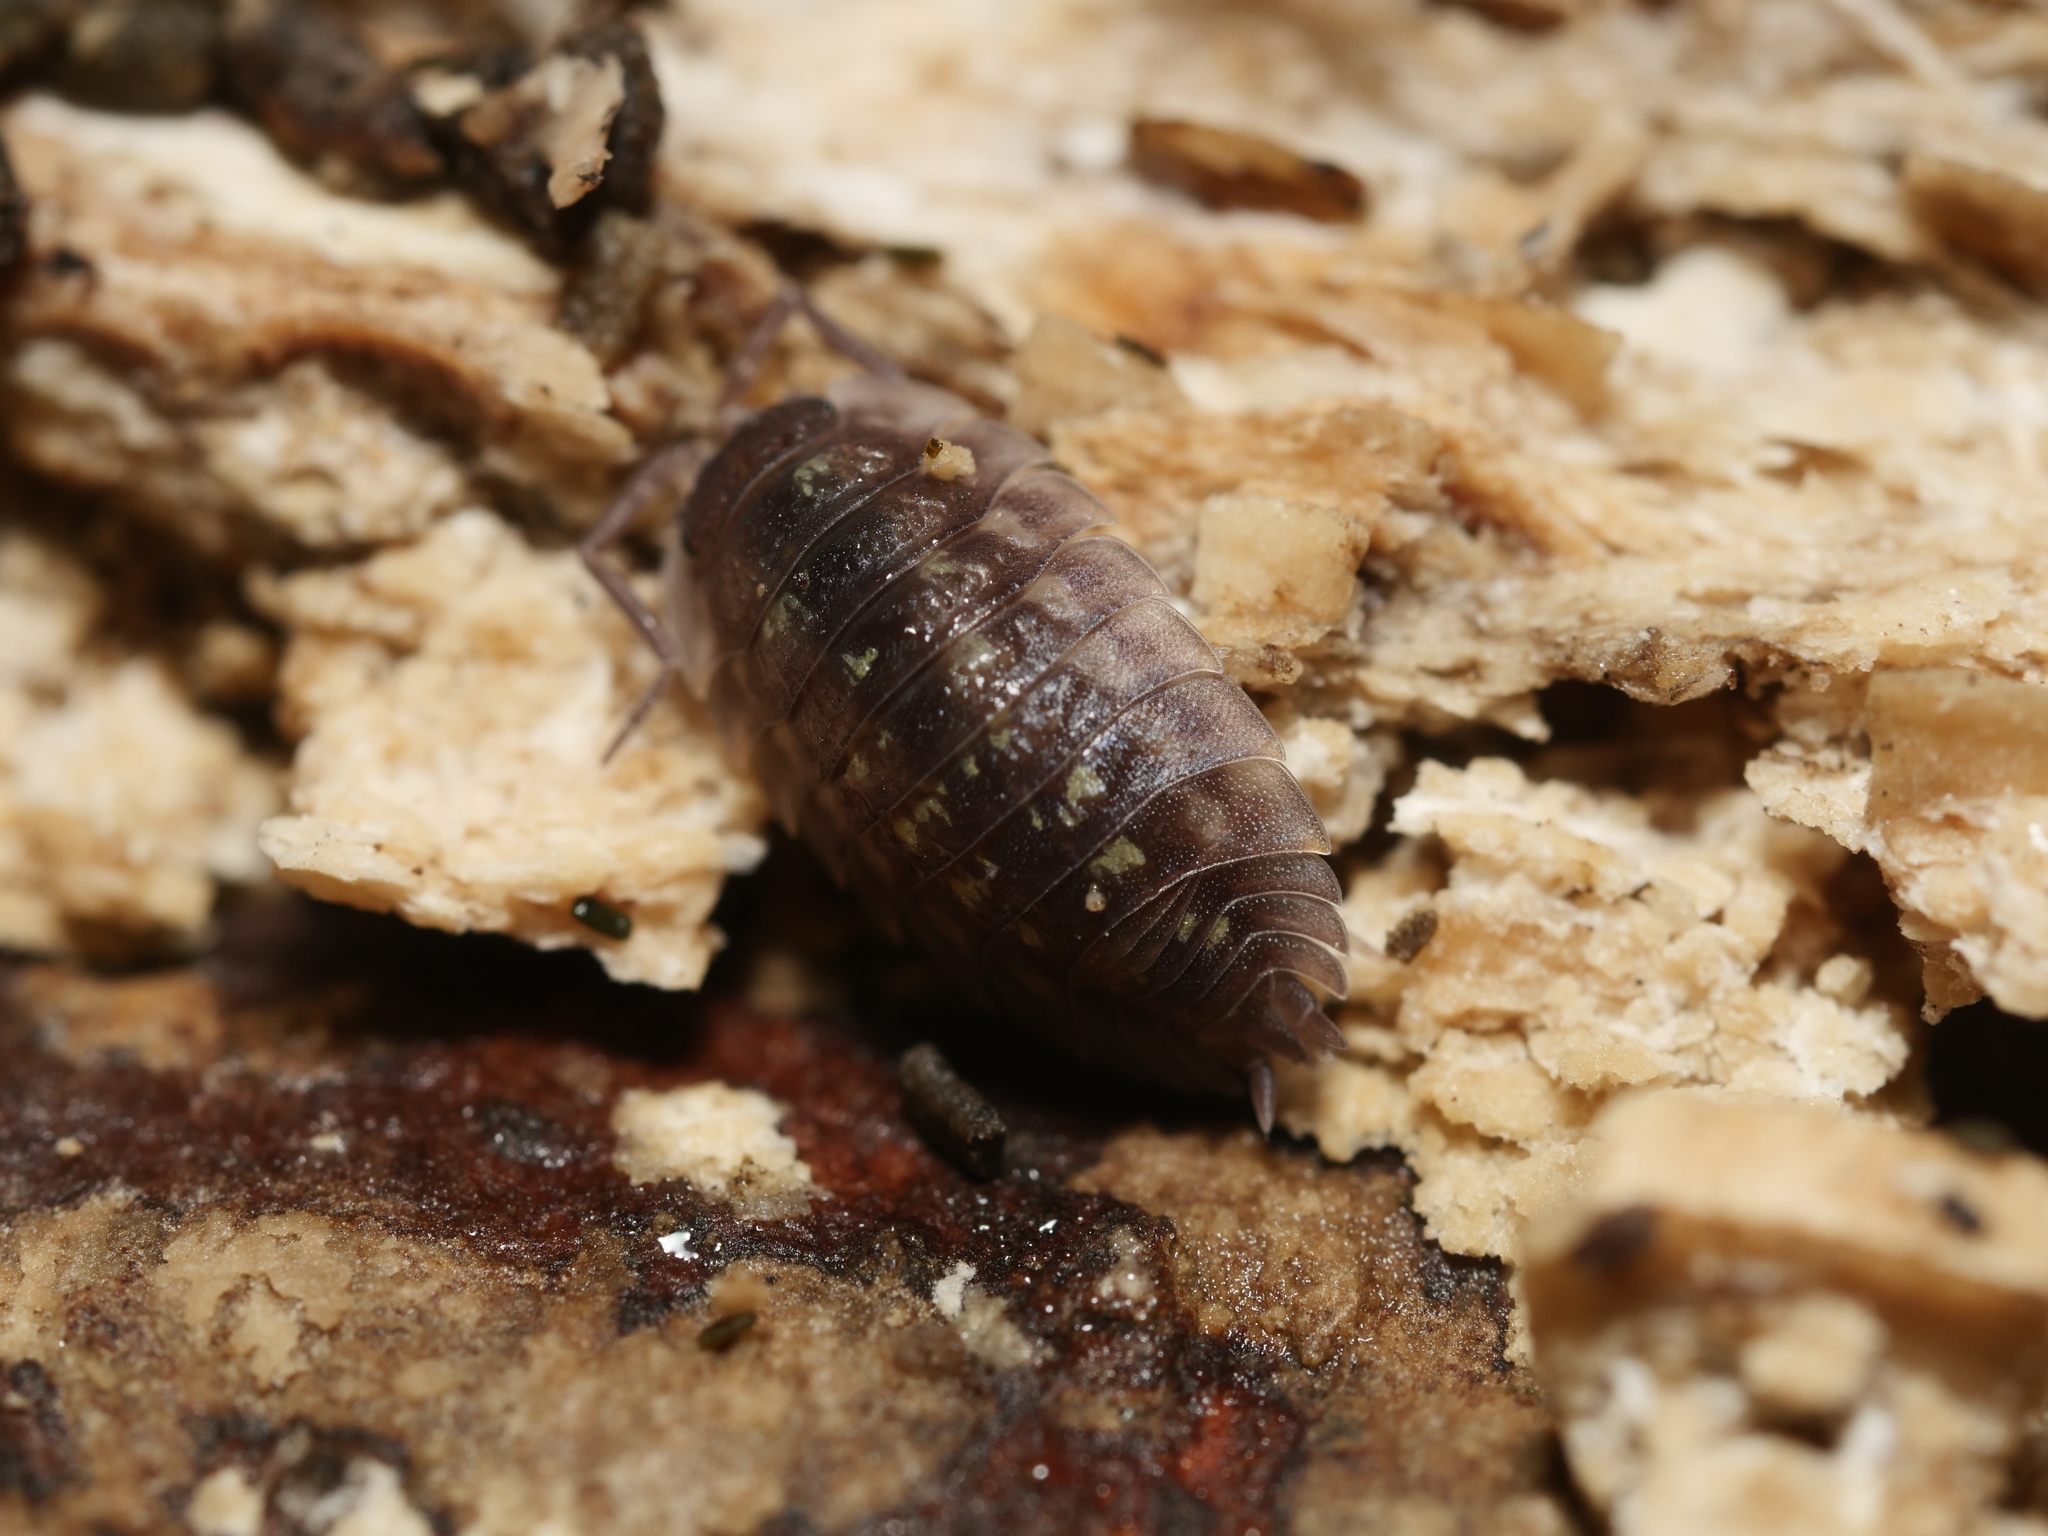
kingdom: Animalia
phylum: Arthropoda
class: Malacostraca
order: Isopoda
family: Oniscidae
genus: Oniscus
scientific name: Oniscus asellus
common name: Common shiny woodlouse
